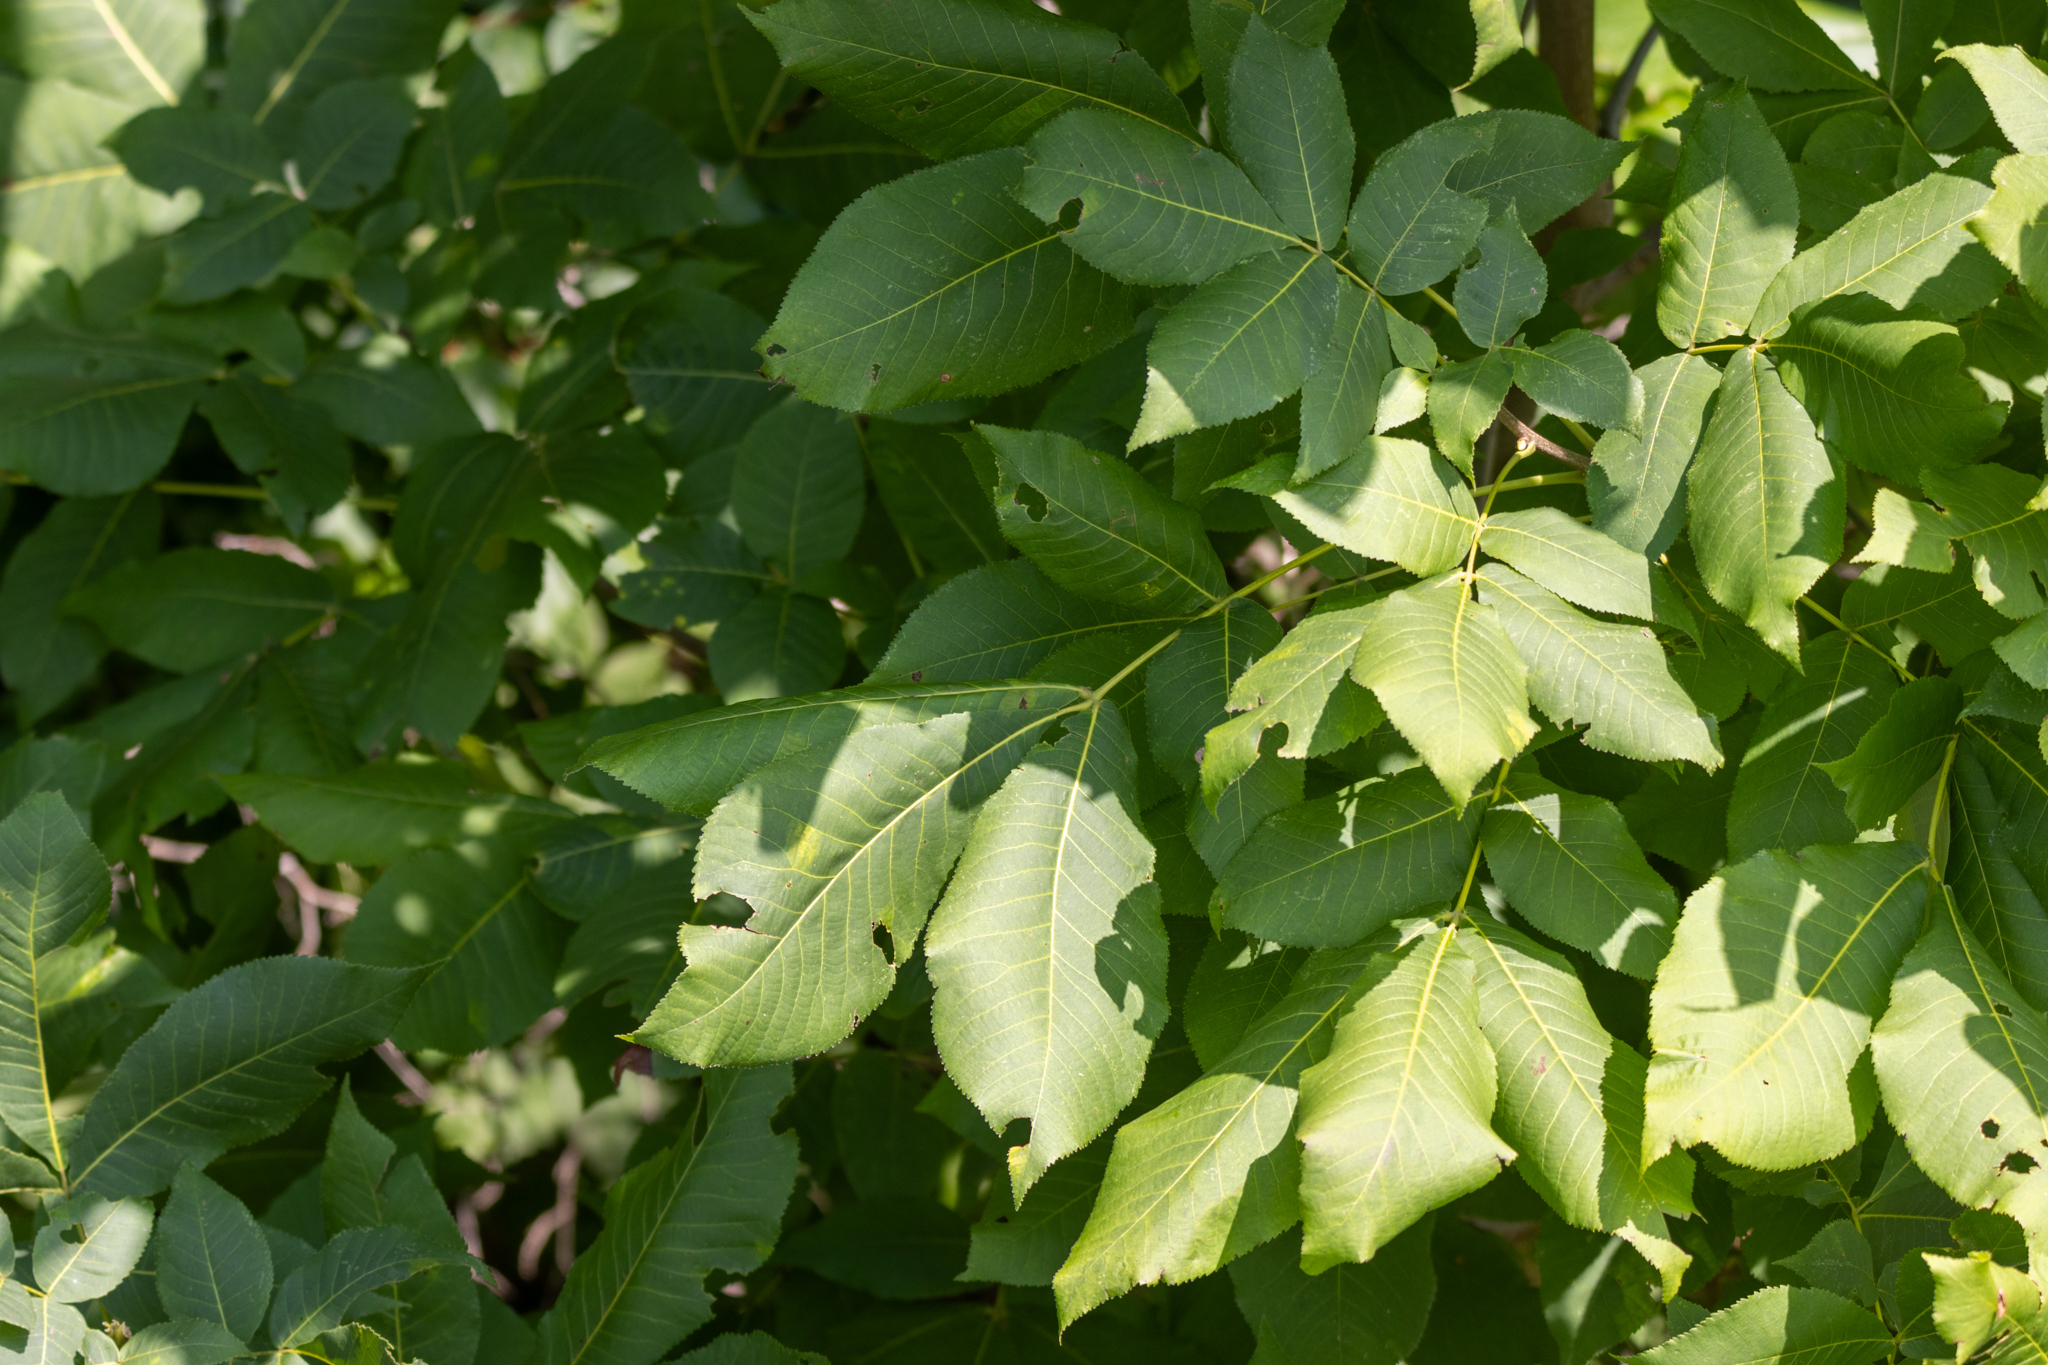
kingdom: Plantae
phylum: Tracheophyta
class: Magnoliopsida
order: Fagales
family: Juglandaceae
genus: Carya
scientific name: Carya ovata
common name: Shagbark hickory
